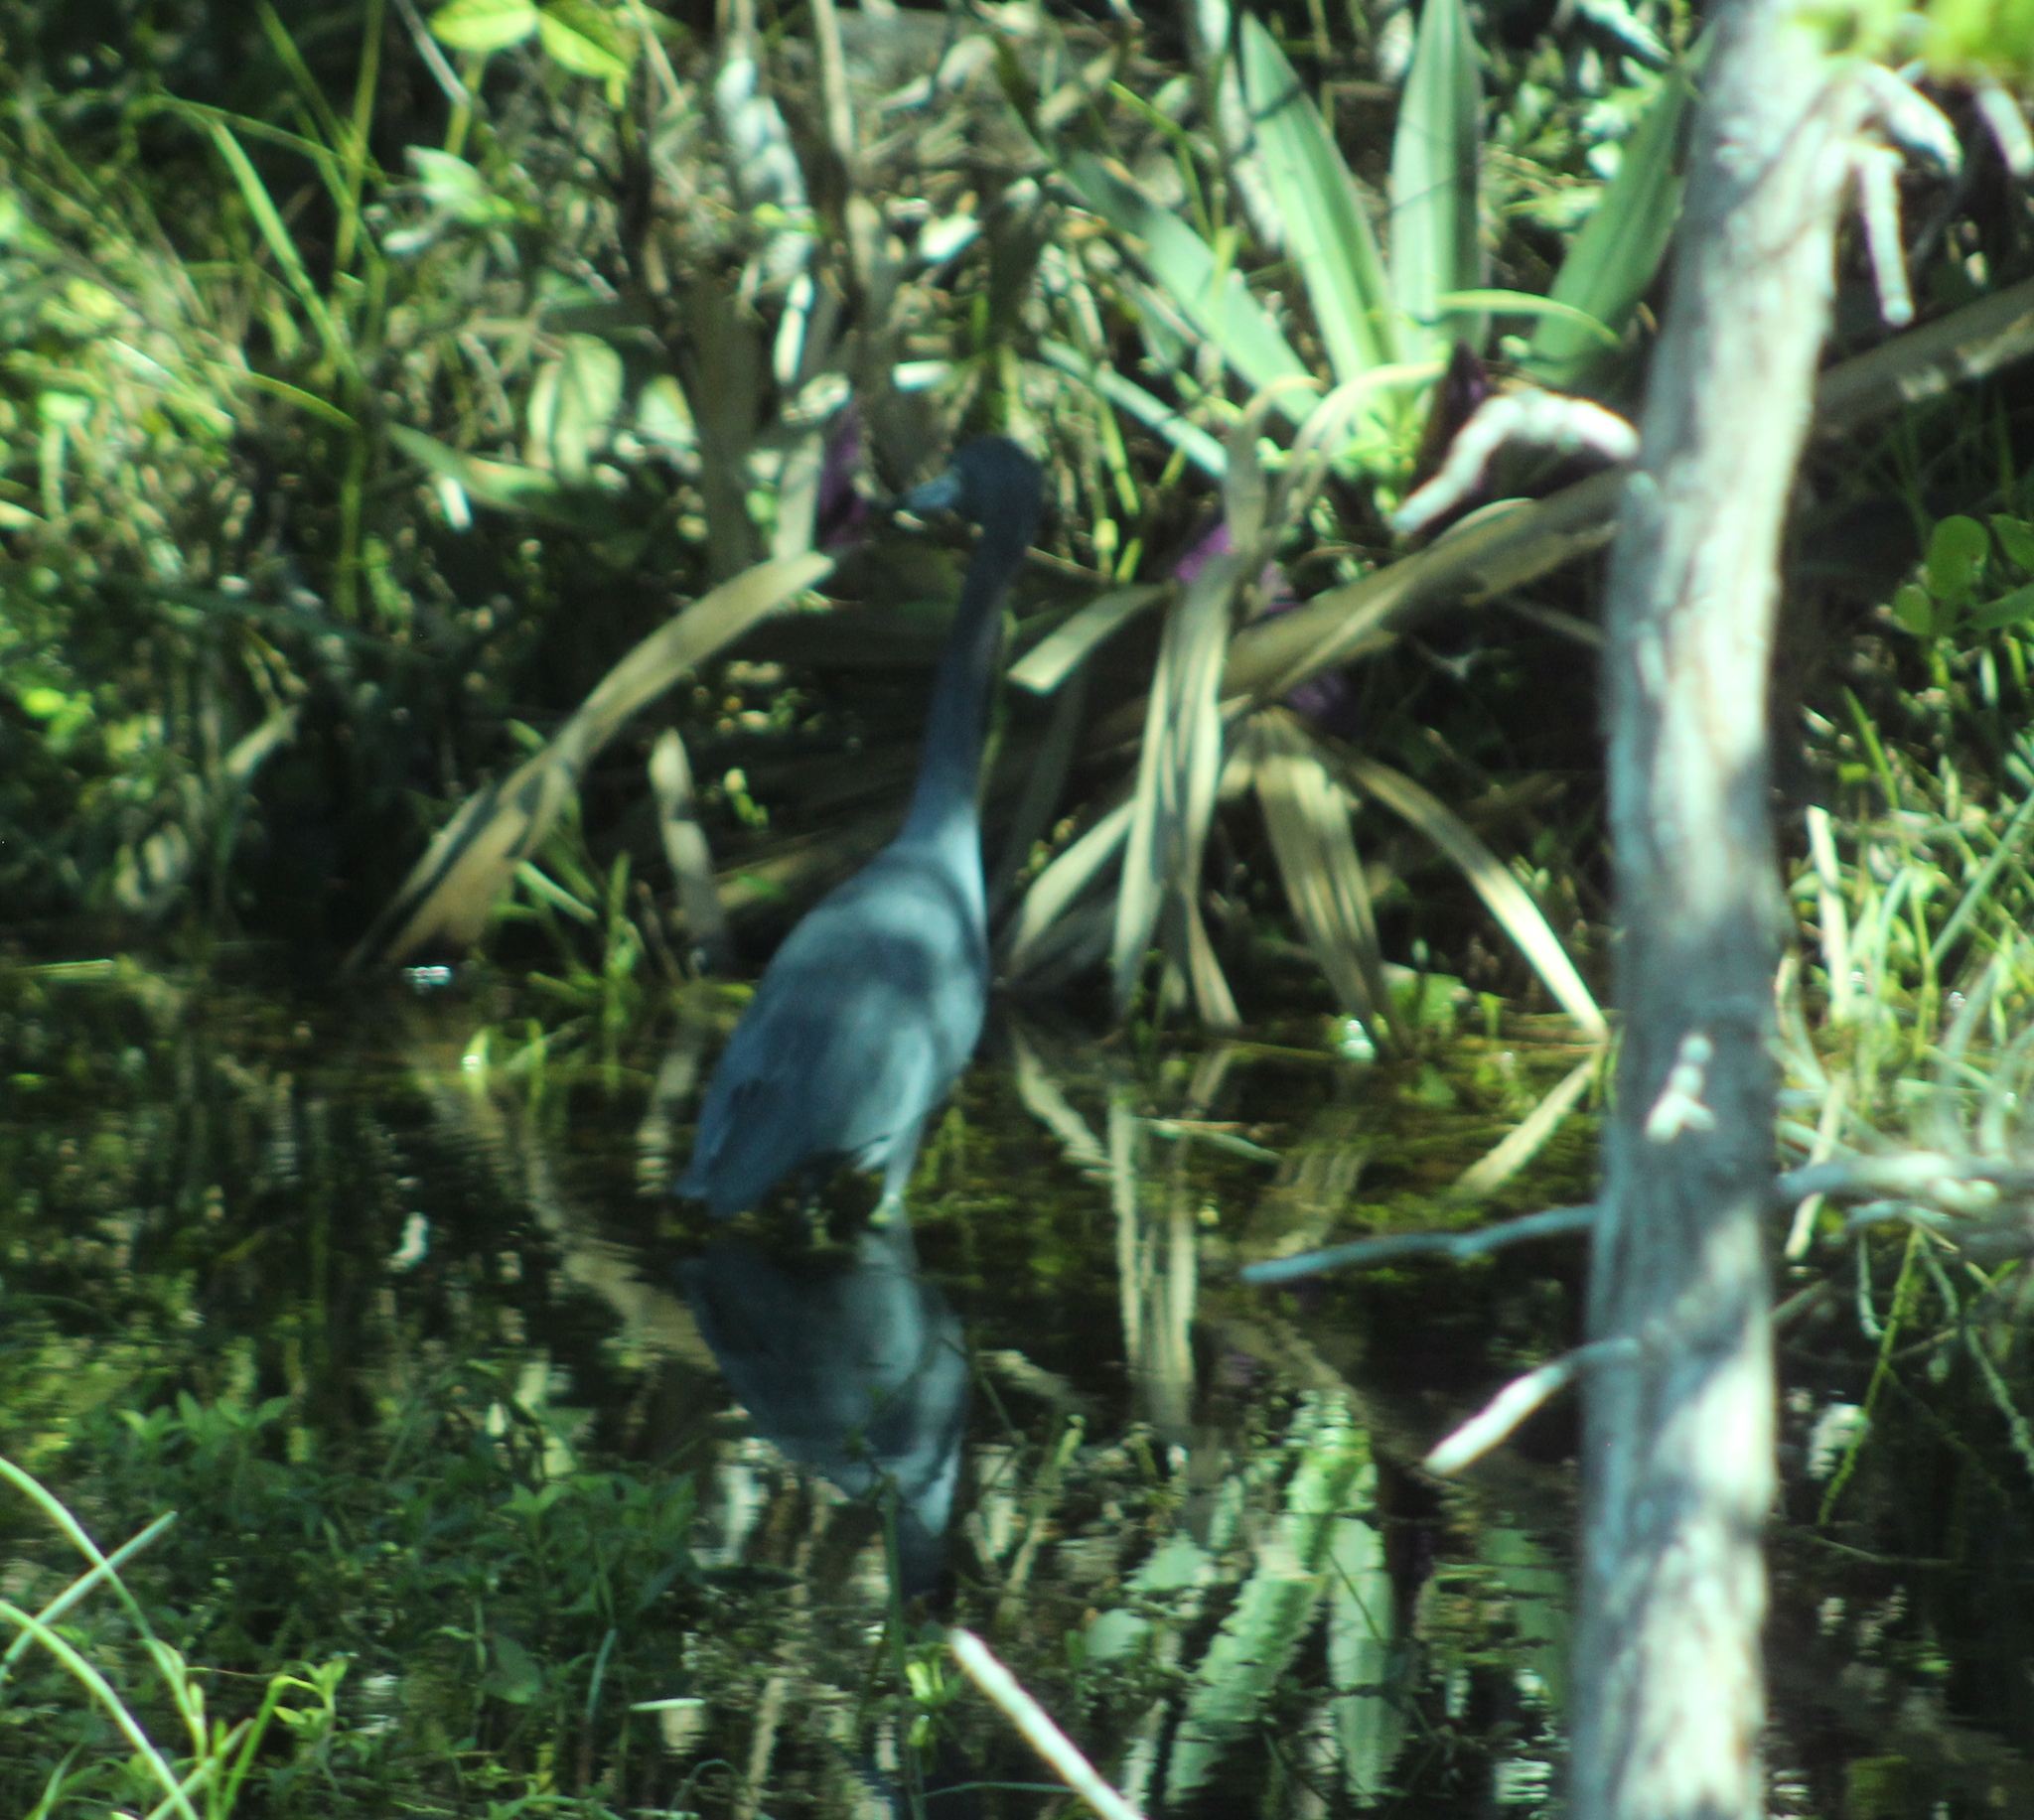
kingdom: Animalia
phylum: Chordata
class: Aves
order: Pelecaniformes
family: Ardeidae
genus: Egretta
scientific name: Egretta caerulea
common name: Little blue heron
